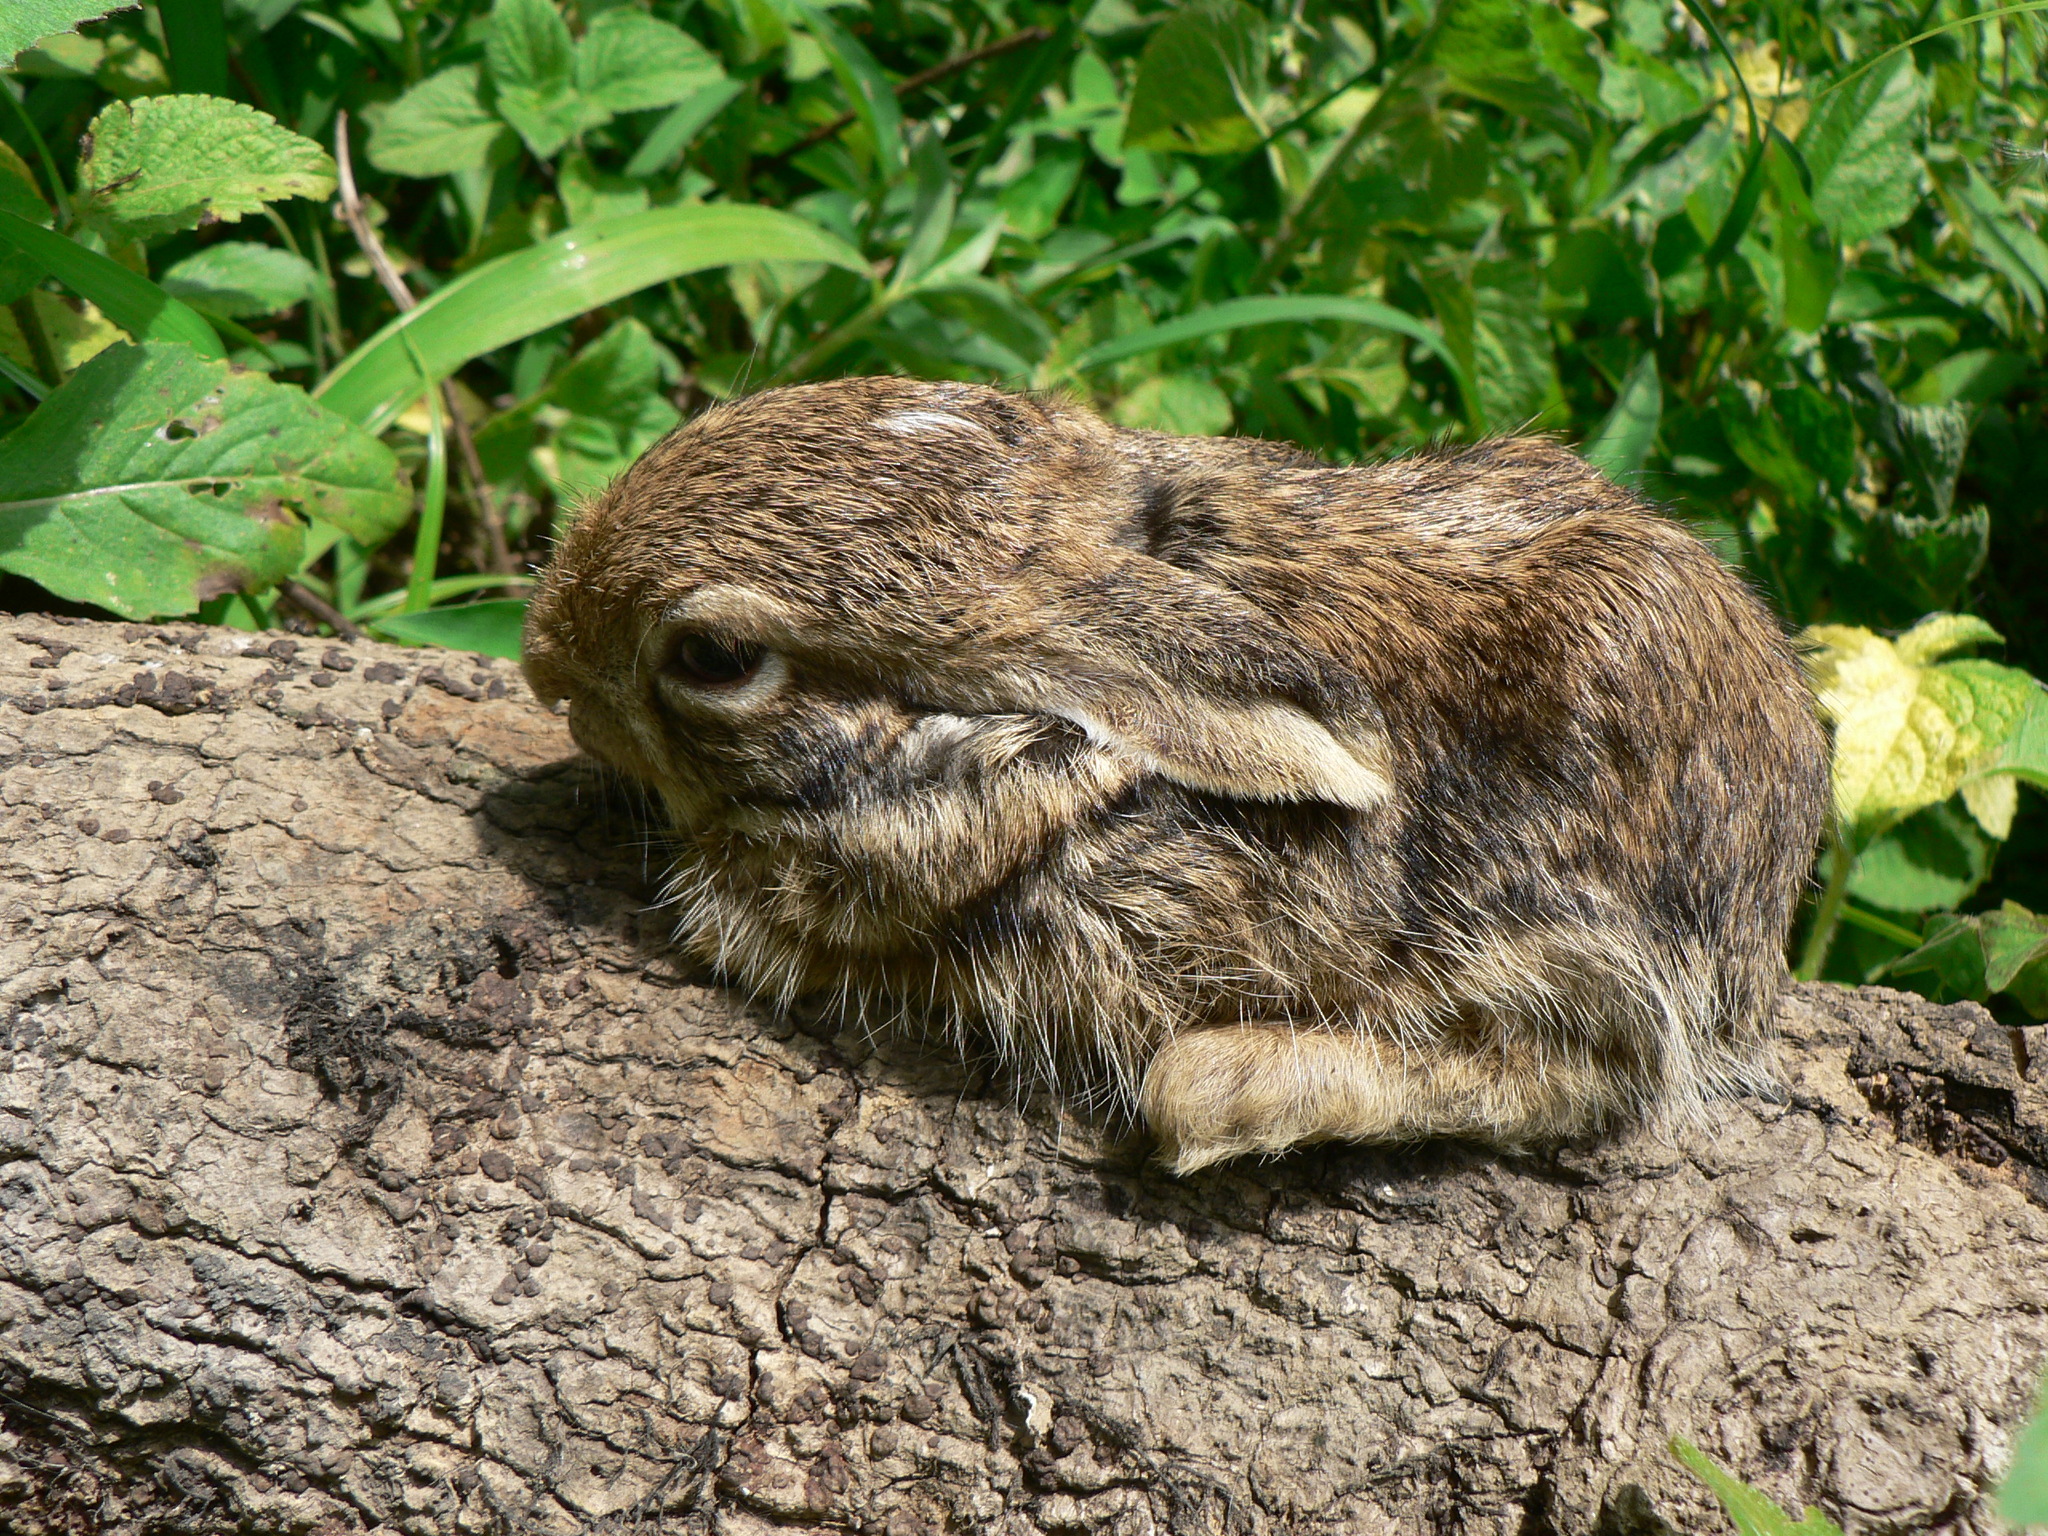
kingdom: Animalia
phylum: Chordata
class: Mammalia
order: Lagomorpha
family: Leporidae
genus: Lepus
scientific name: Lepus nigricollis
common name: Indian hare
